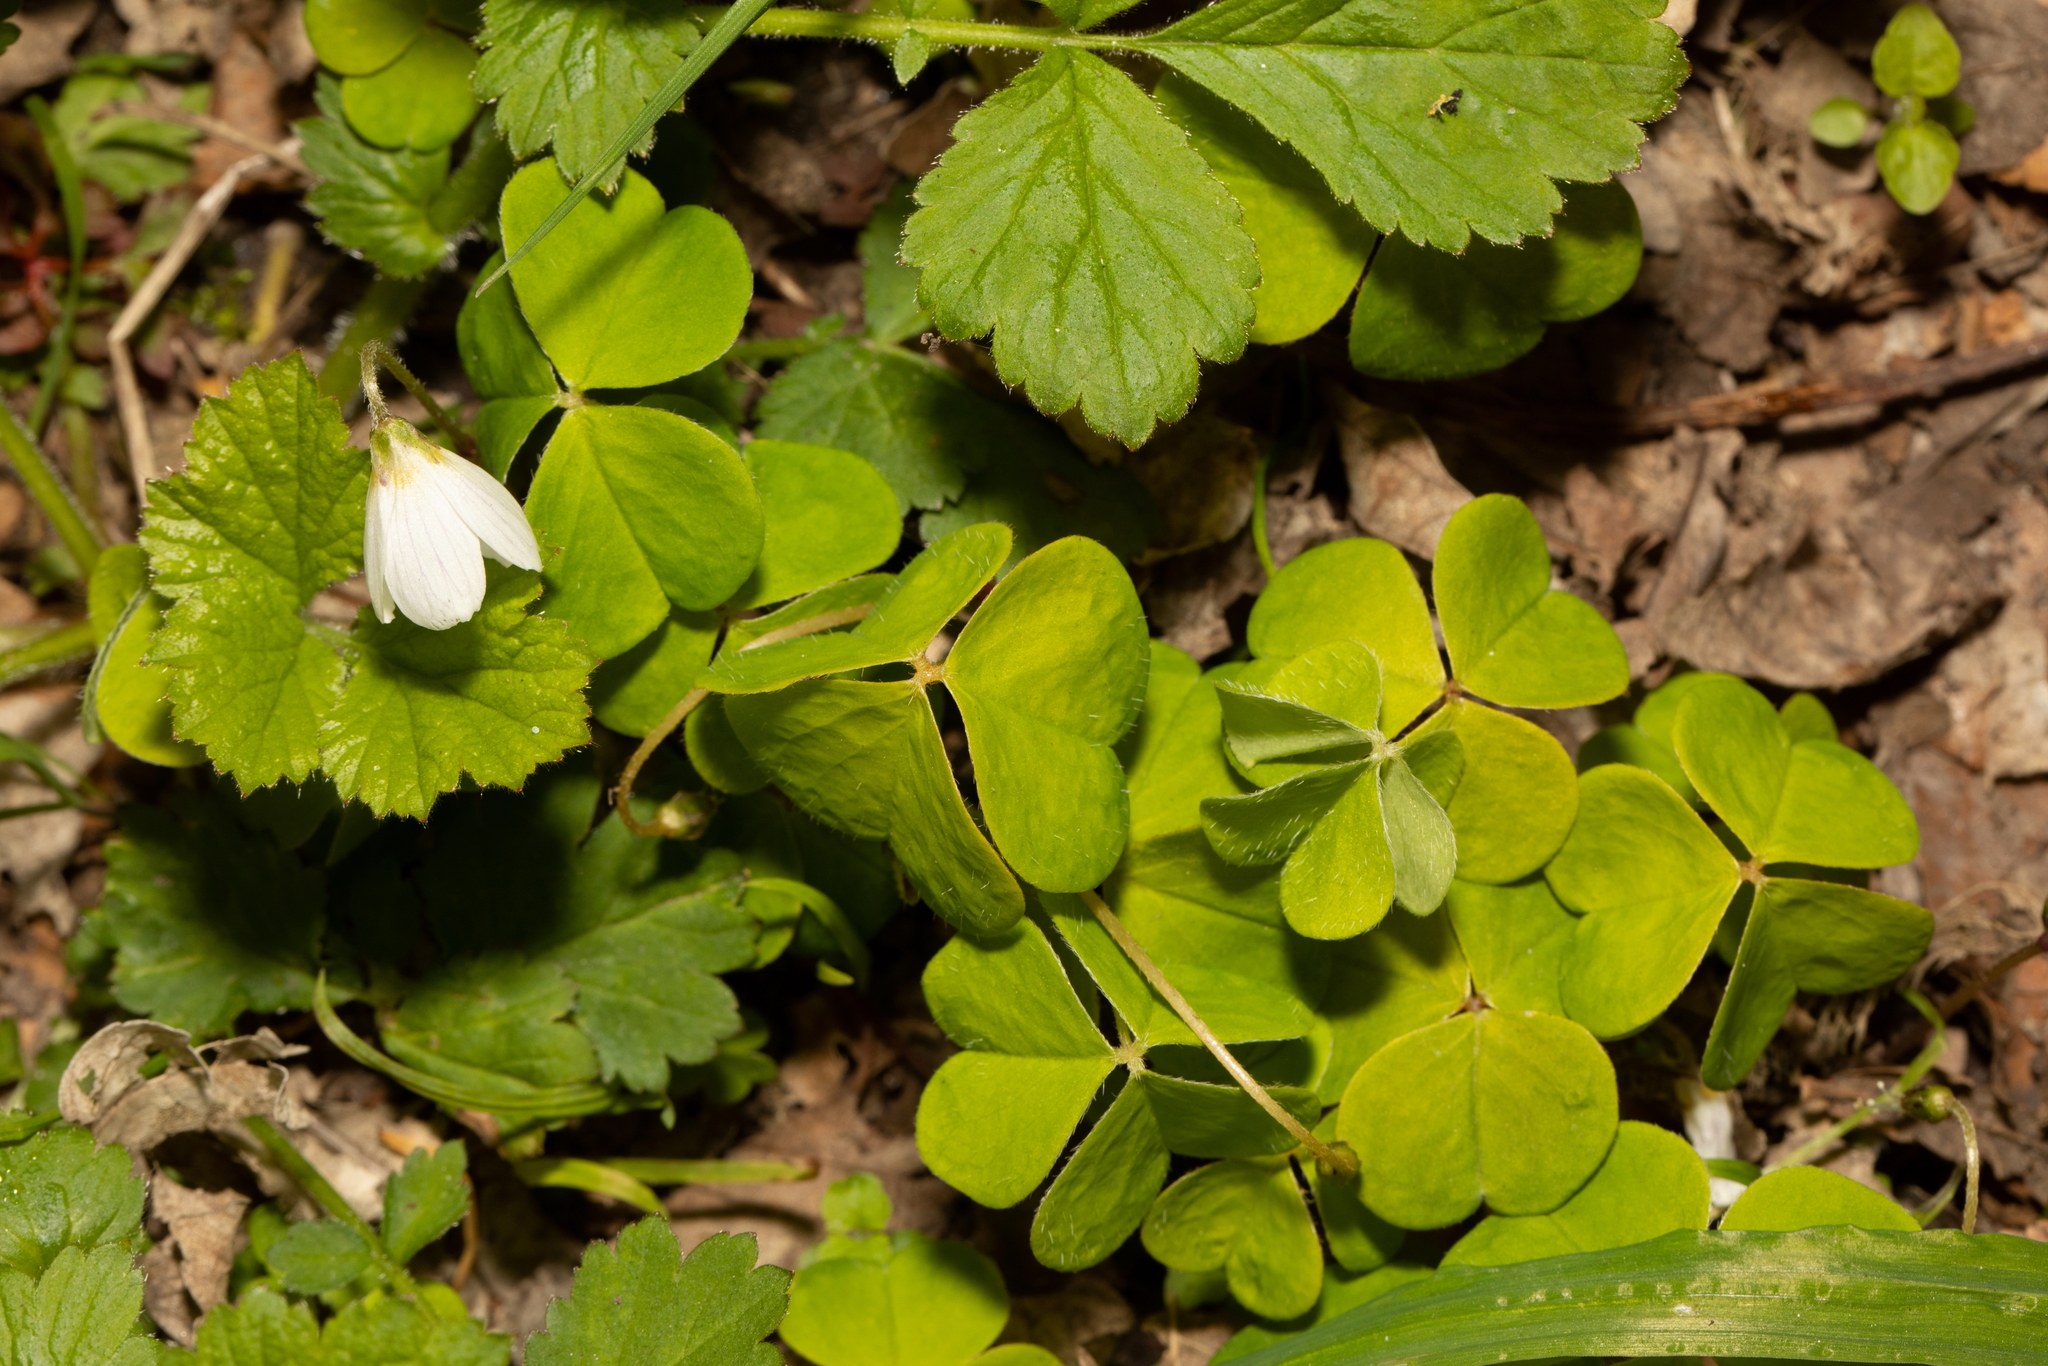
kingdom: Plantae
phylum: Tracheophyta
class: Magnoliopsida
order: Oxalidales
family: Oxalidaceae
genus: Oxalis
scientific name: Oxalis acetosella
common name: Wood-sorrel
